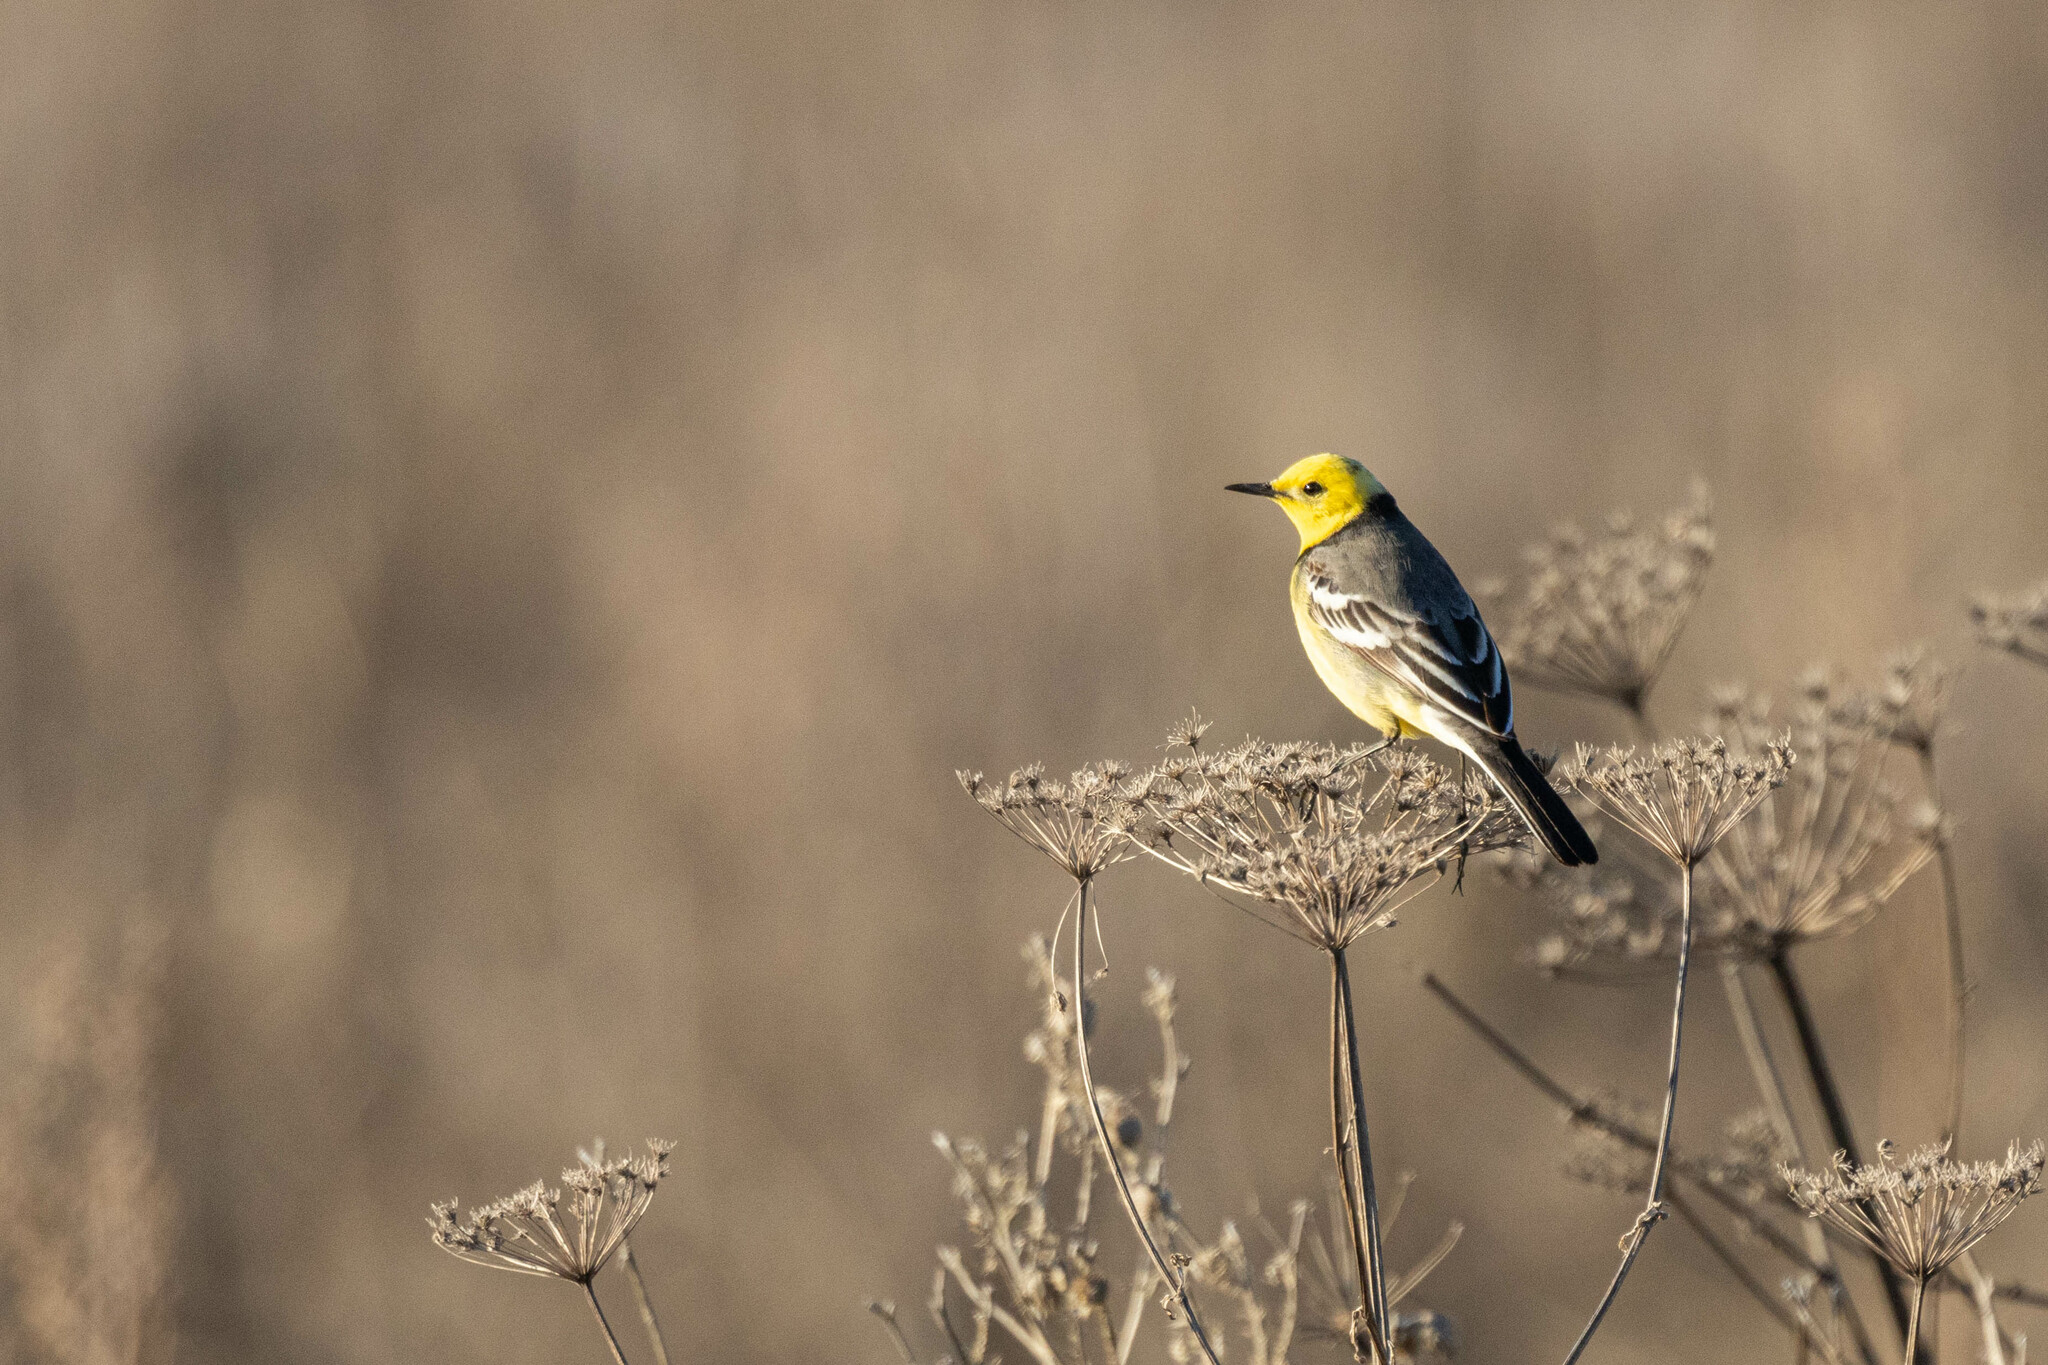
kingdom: Animalia
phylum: Chordata
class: Aves
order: Passeriformes
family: Motacillidae
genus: Motacilla
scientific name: Motacilla citreola
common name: Citrine wagtail
